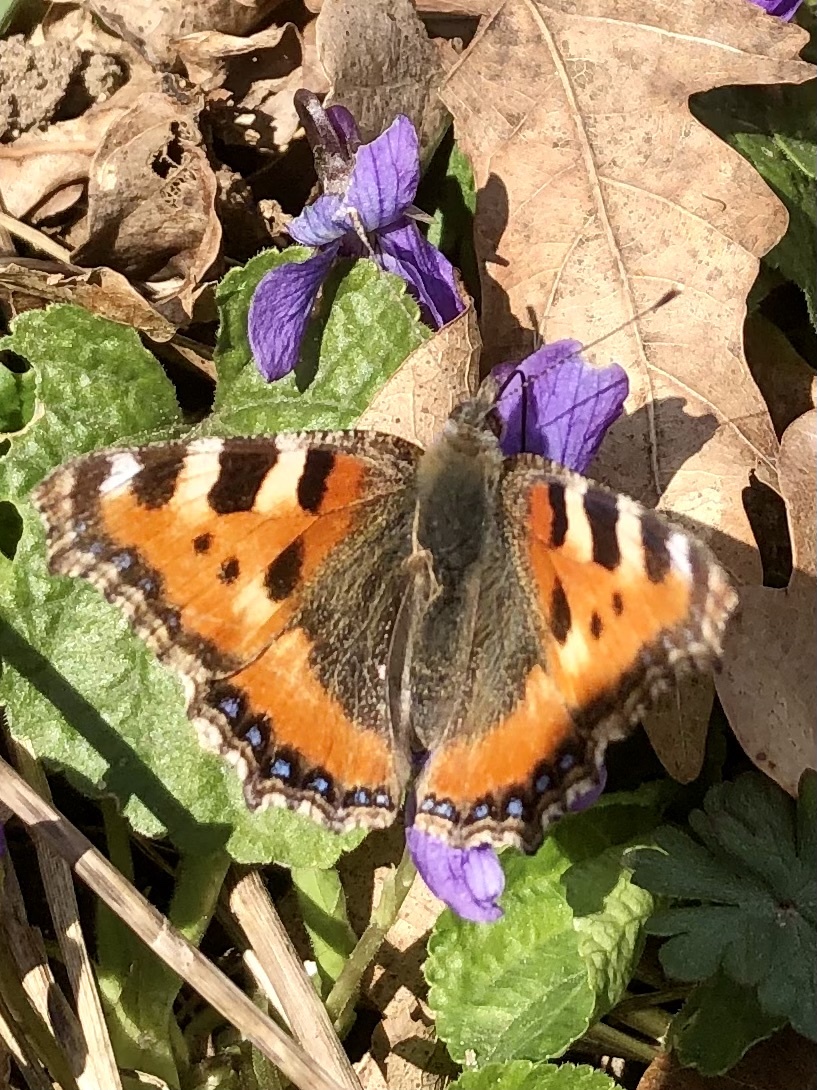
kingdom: Animalia
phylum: Arthropoda
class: Insecta
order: Lepidoptera
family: Nymphalidae
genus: Aglais
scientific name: Aglais urticae
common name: Small tortoiseshell
